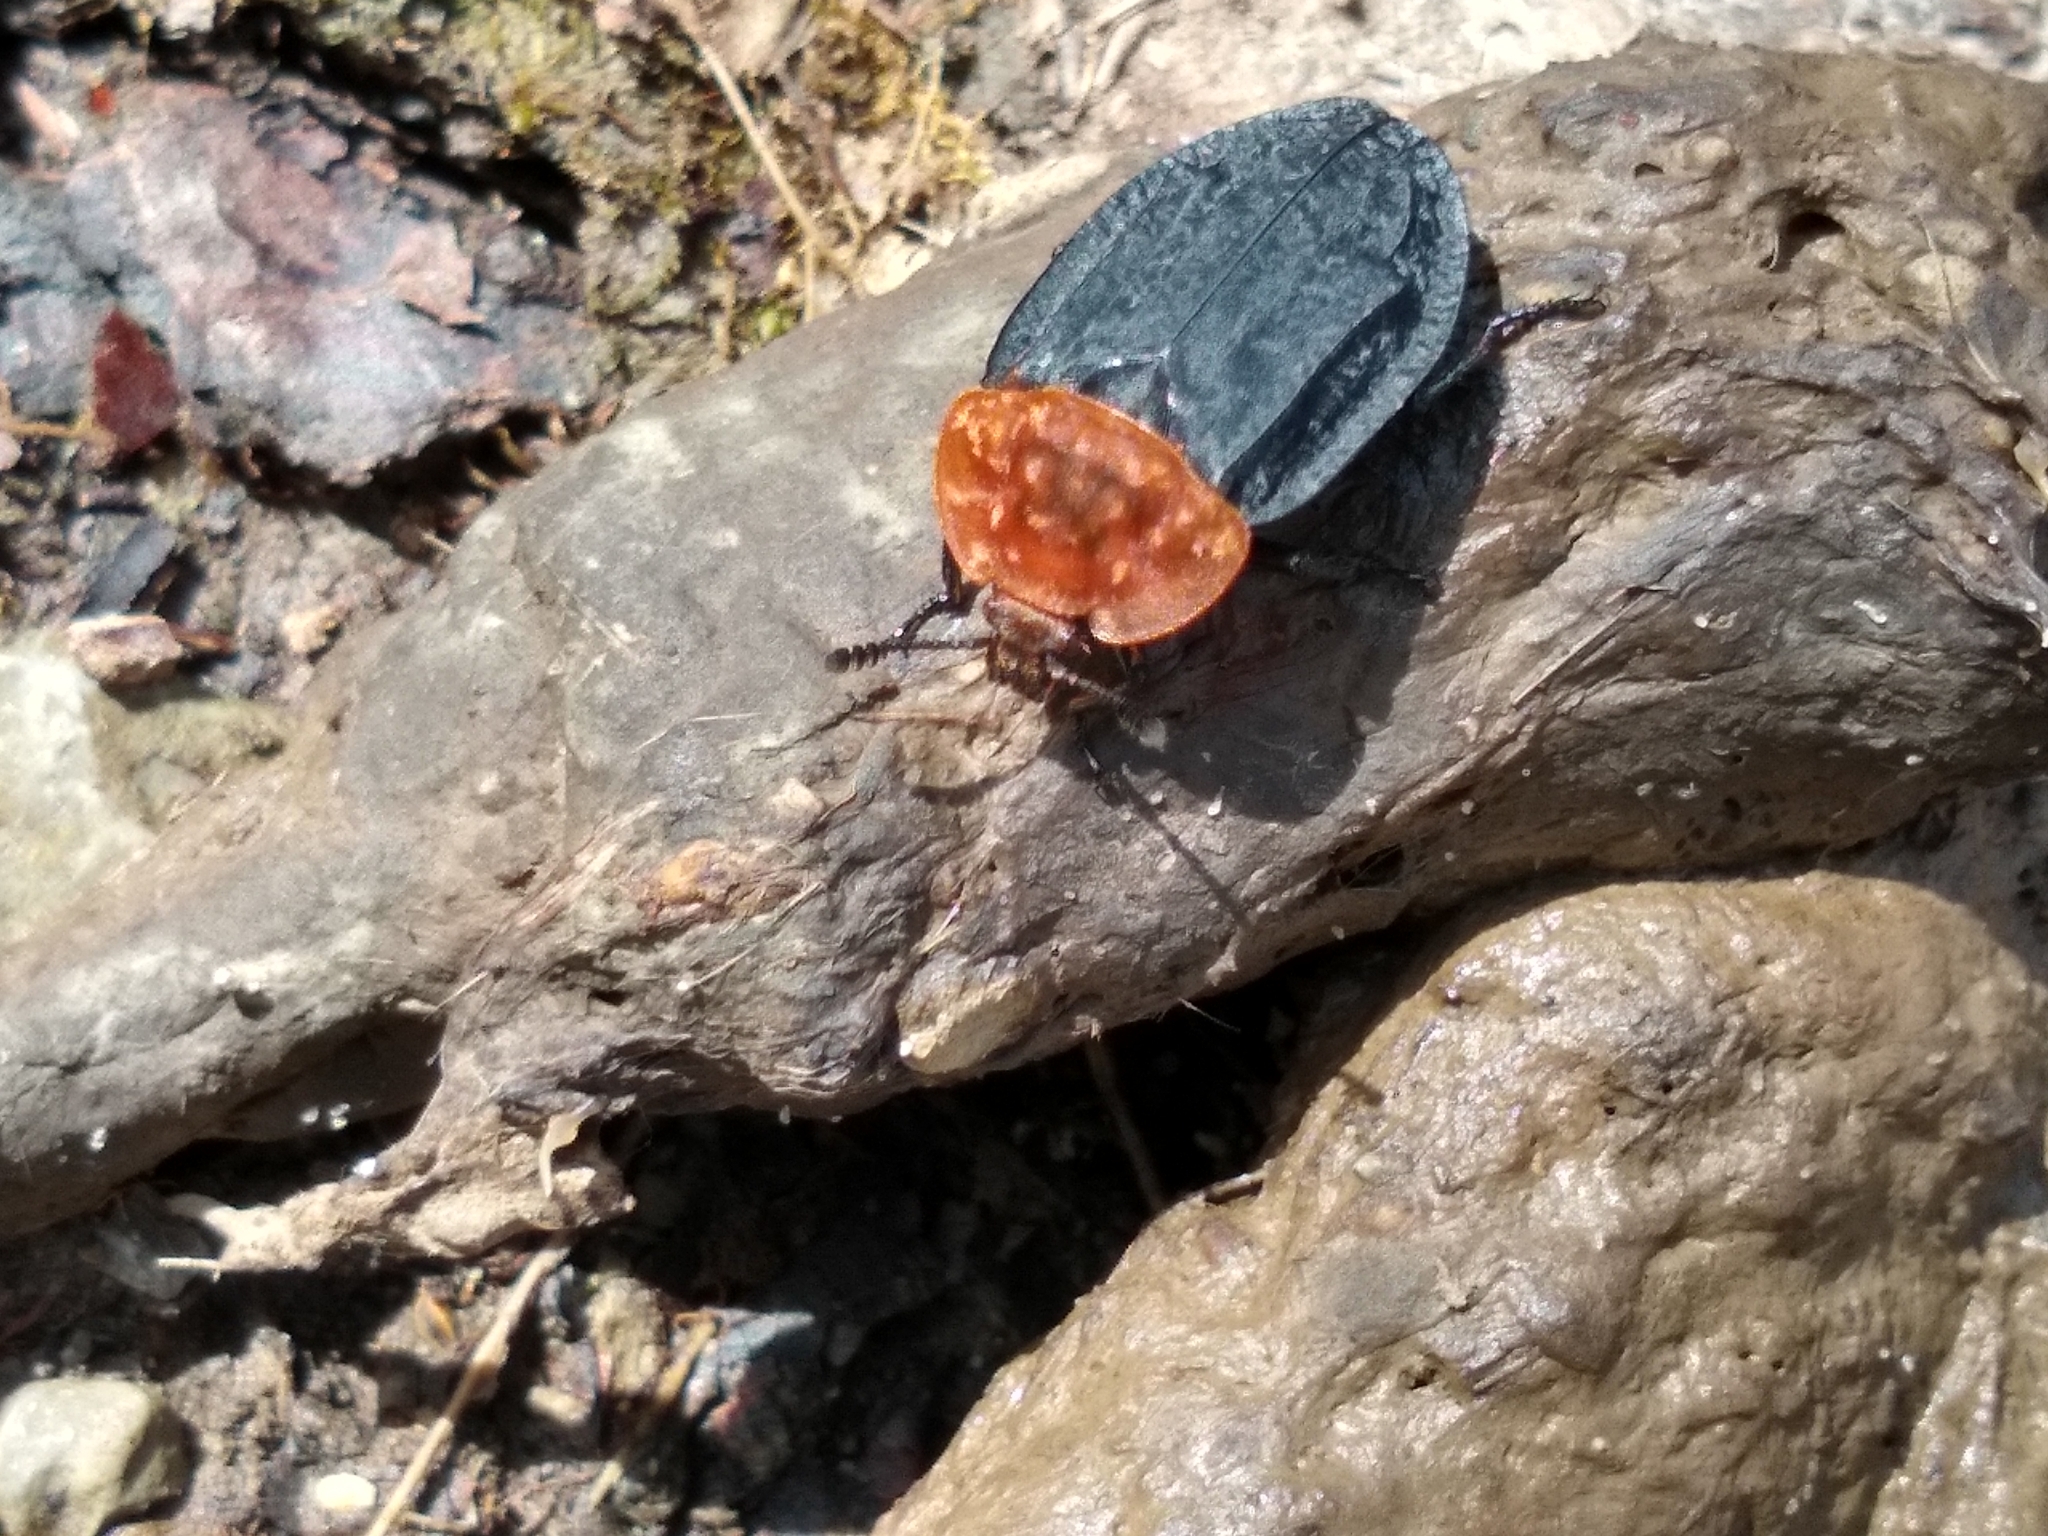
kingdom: Animalia
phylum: Arthropoda
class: Insecta
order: Coleoptera
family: Staphylinidae
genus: Oiceoptoma
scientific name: Oiceoptoma thoracicum
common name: Red-breasted carrion beetle
